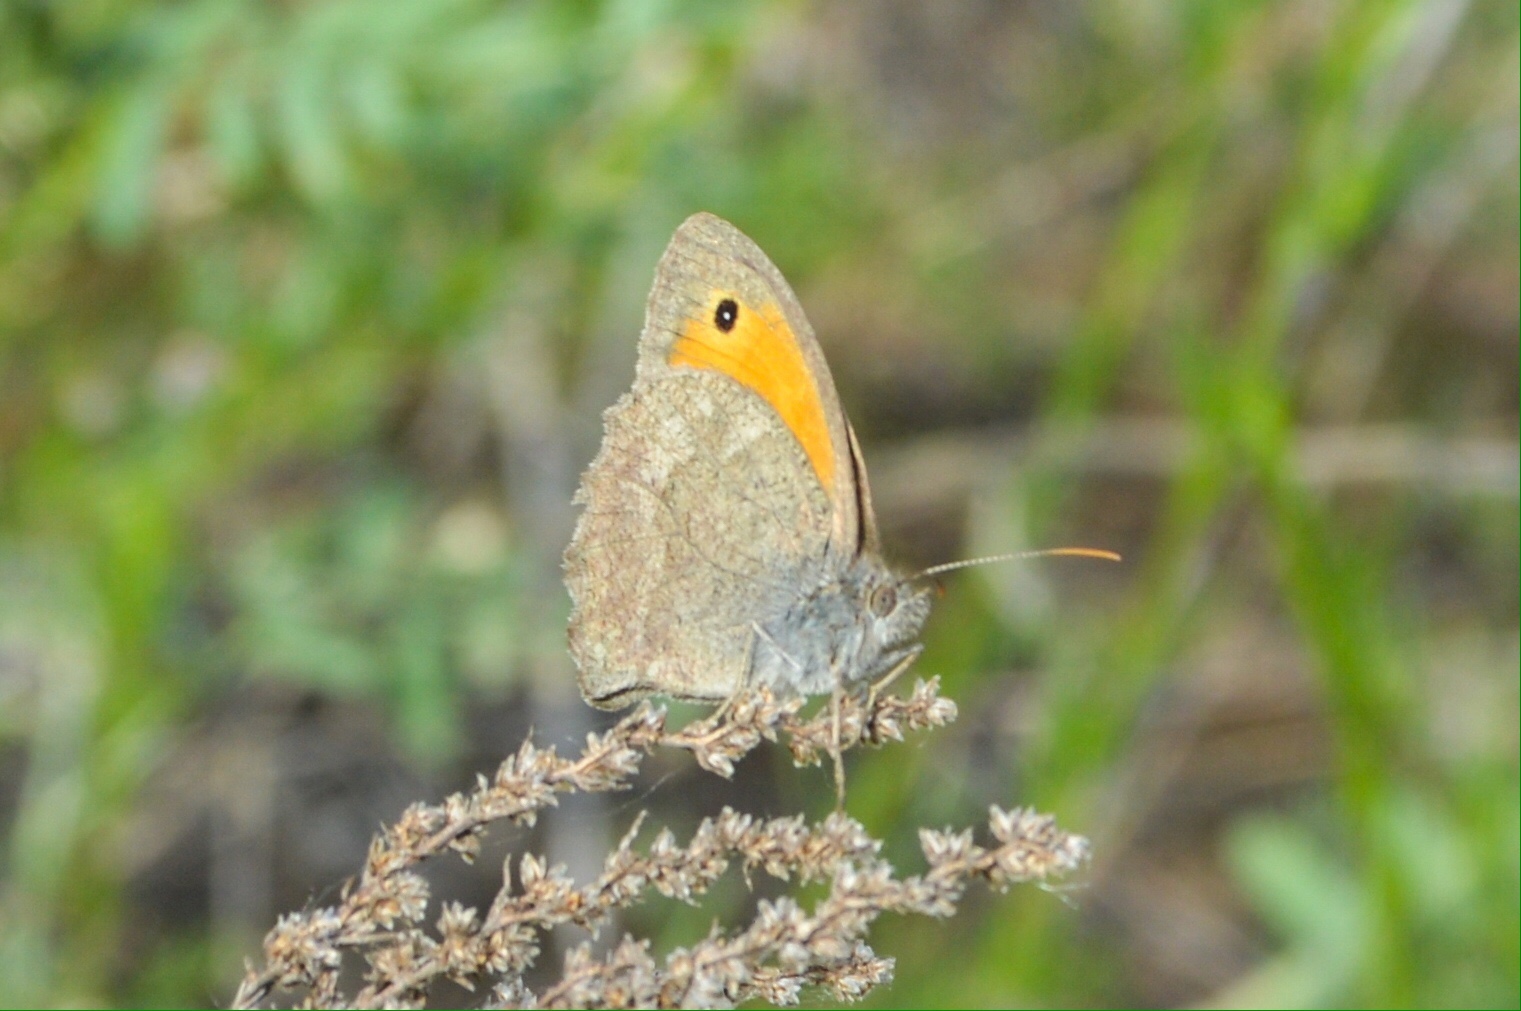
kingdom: Animalia
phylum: Arthropoda
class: Insecta
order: Lepidoptera
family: Nymphalidae
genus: Hyponephele
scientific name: Hyponephele lupinus
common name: Oriental meadow brown
